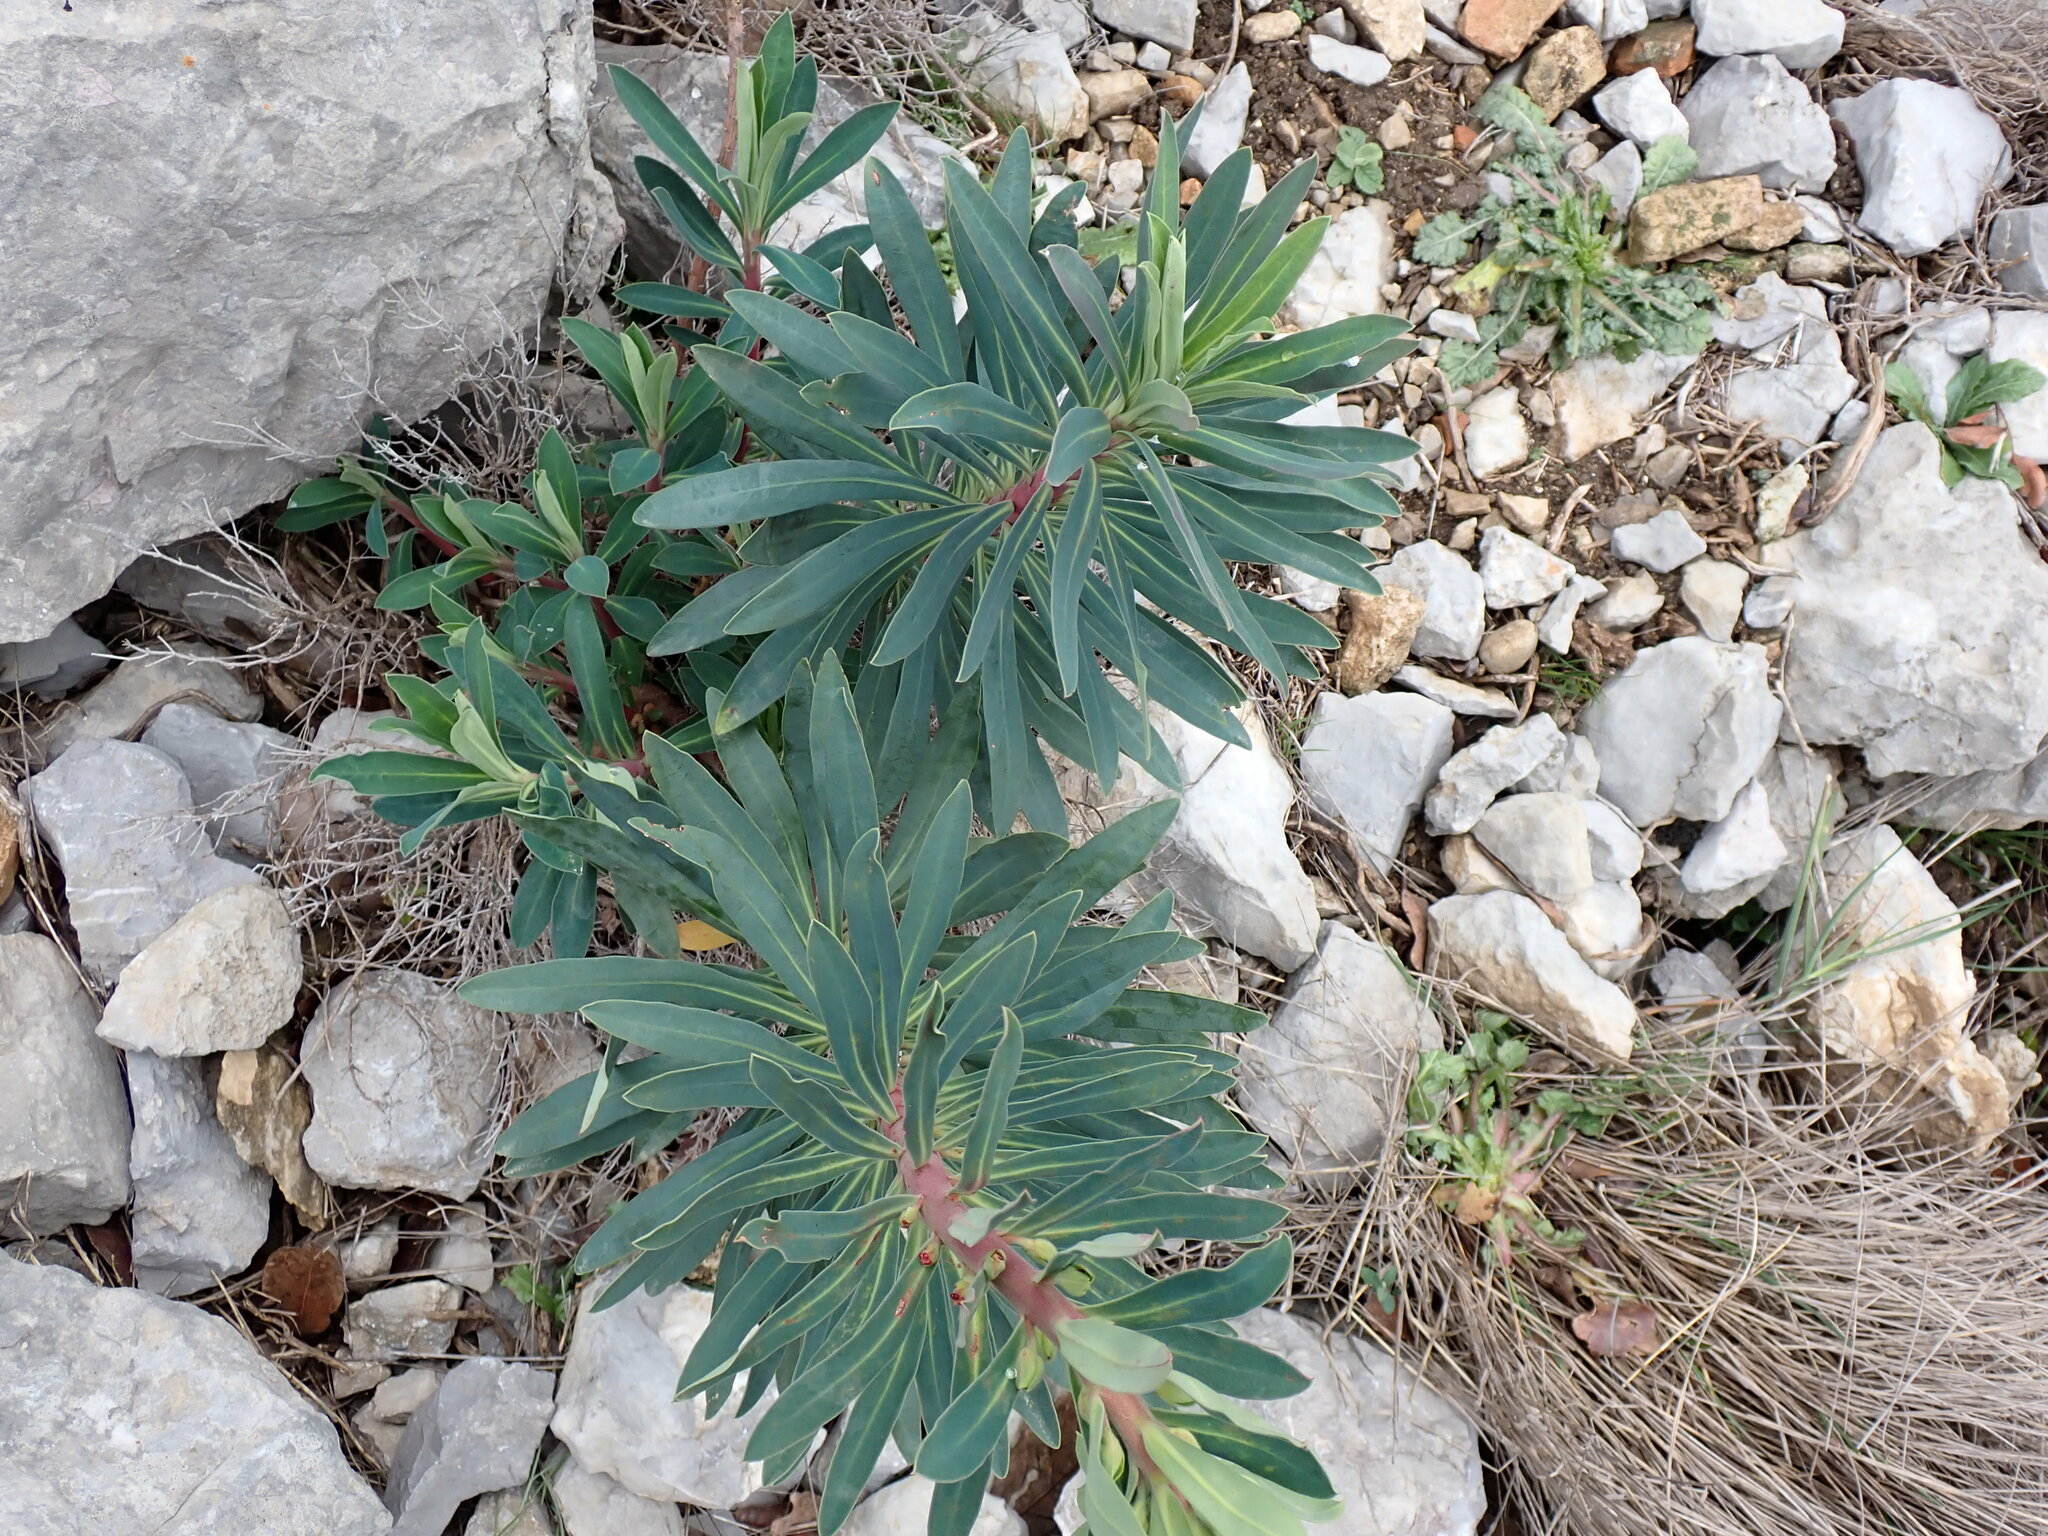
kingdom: Plantae
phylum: Tracheophyta
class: Magnoliopsida
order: Malpighiales
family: Euphorbiaceae
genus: Euphorbia
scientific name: Euphorbia characias
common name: Mediterranean spurge
